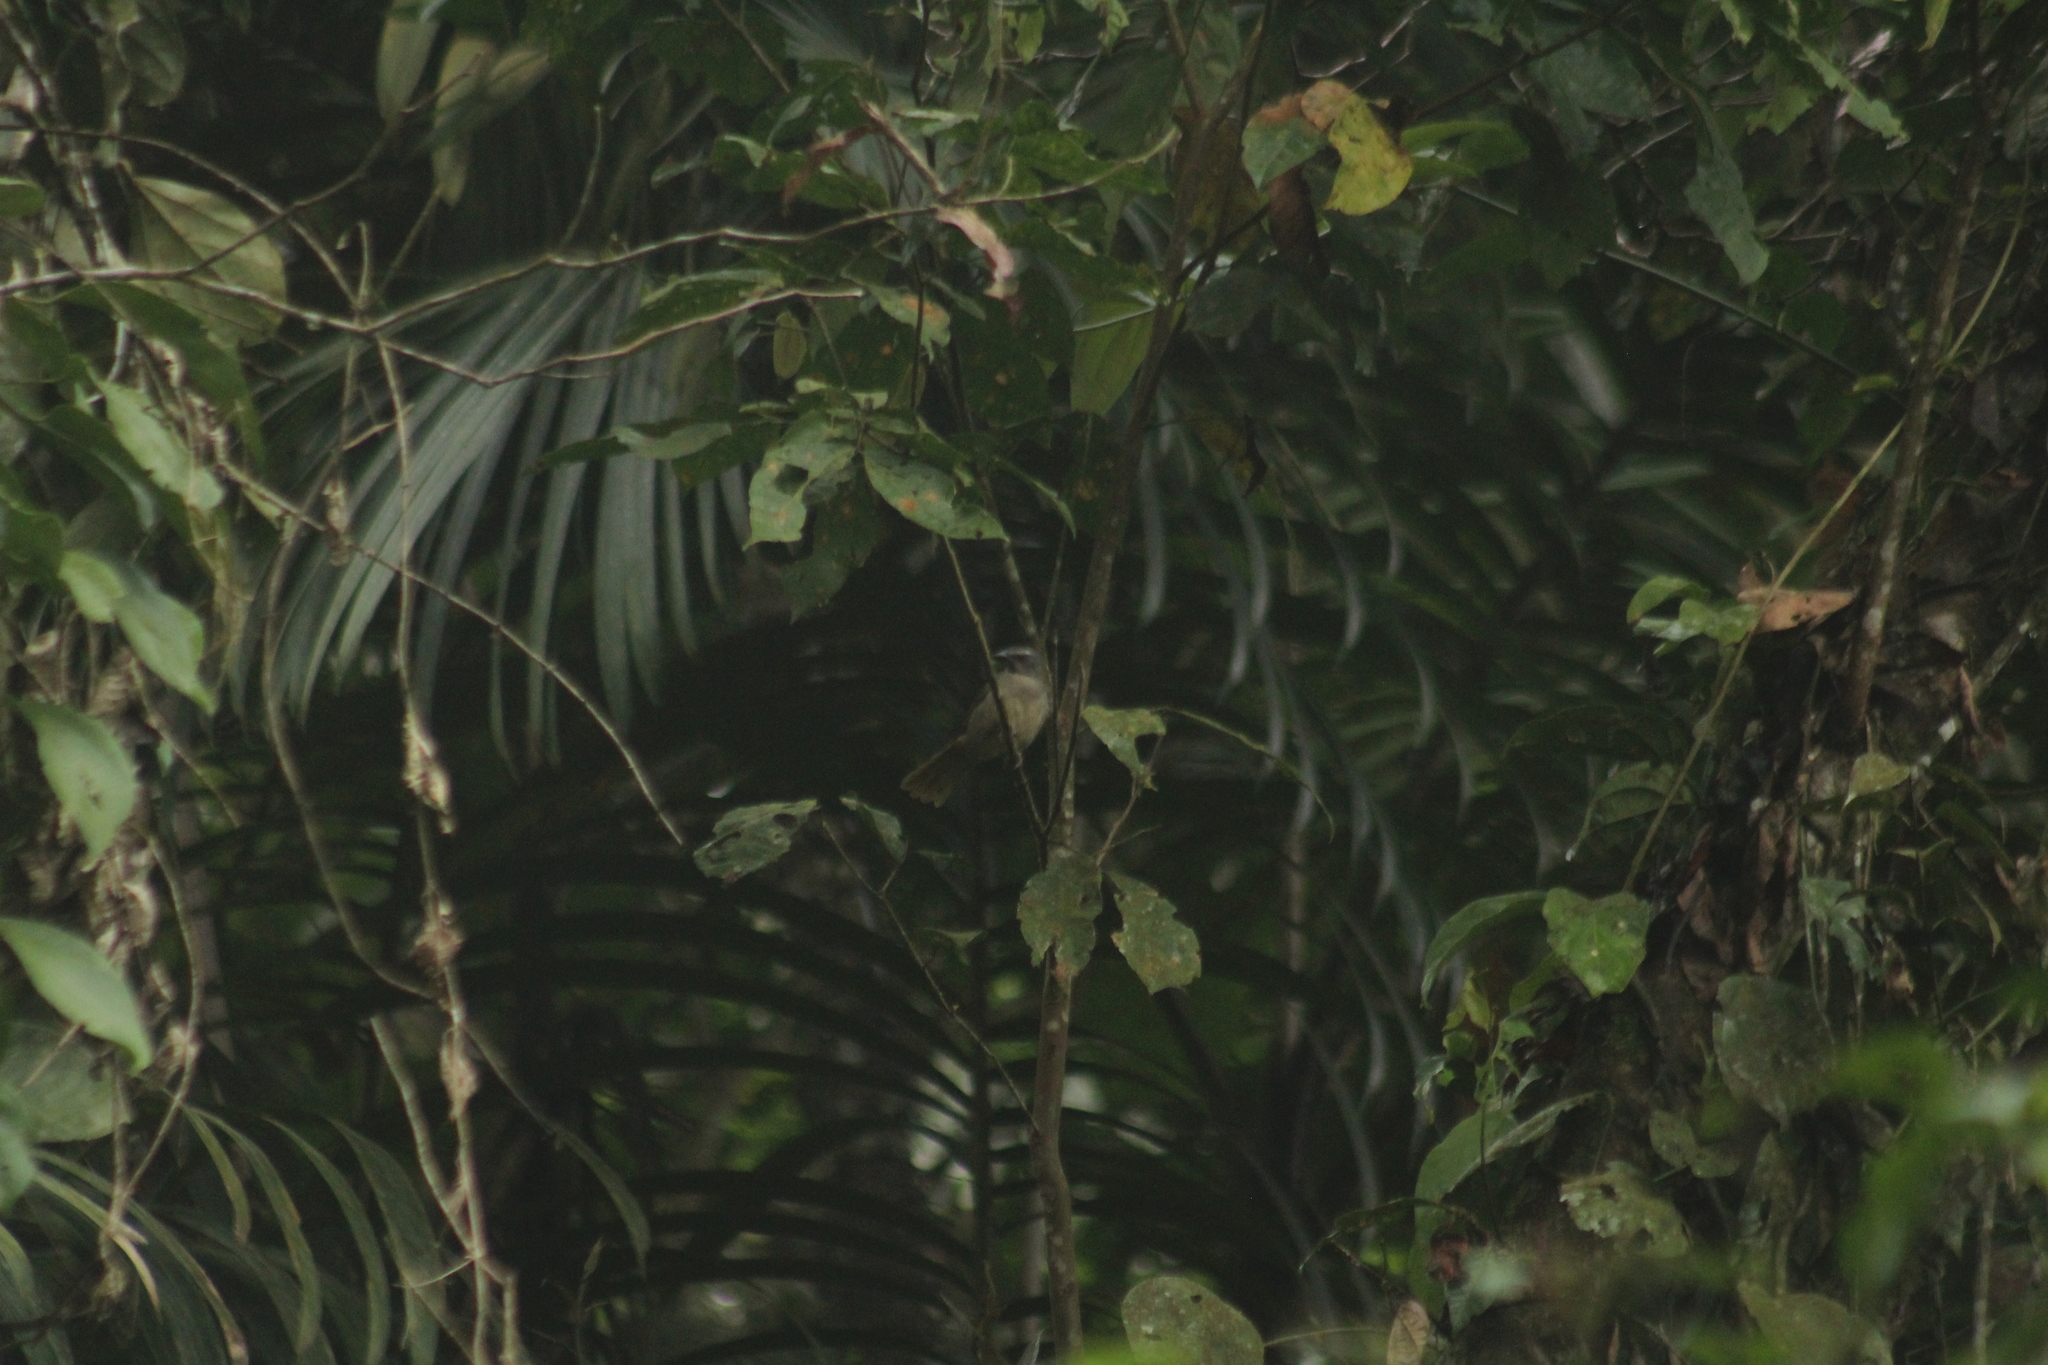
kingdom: Animalia
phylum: Chordata
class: Aves
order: Passeriformes
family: Thraupidae
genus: Saltator
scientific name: Saltator maximus
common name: Buff-throated saltator
